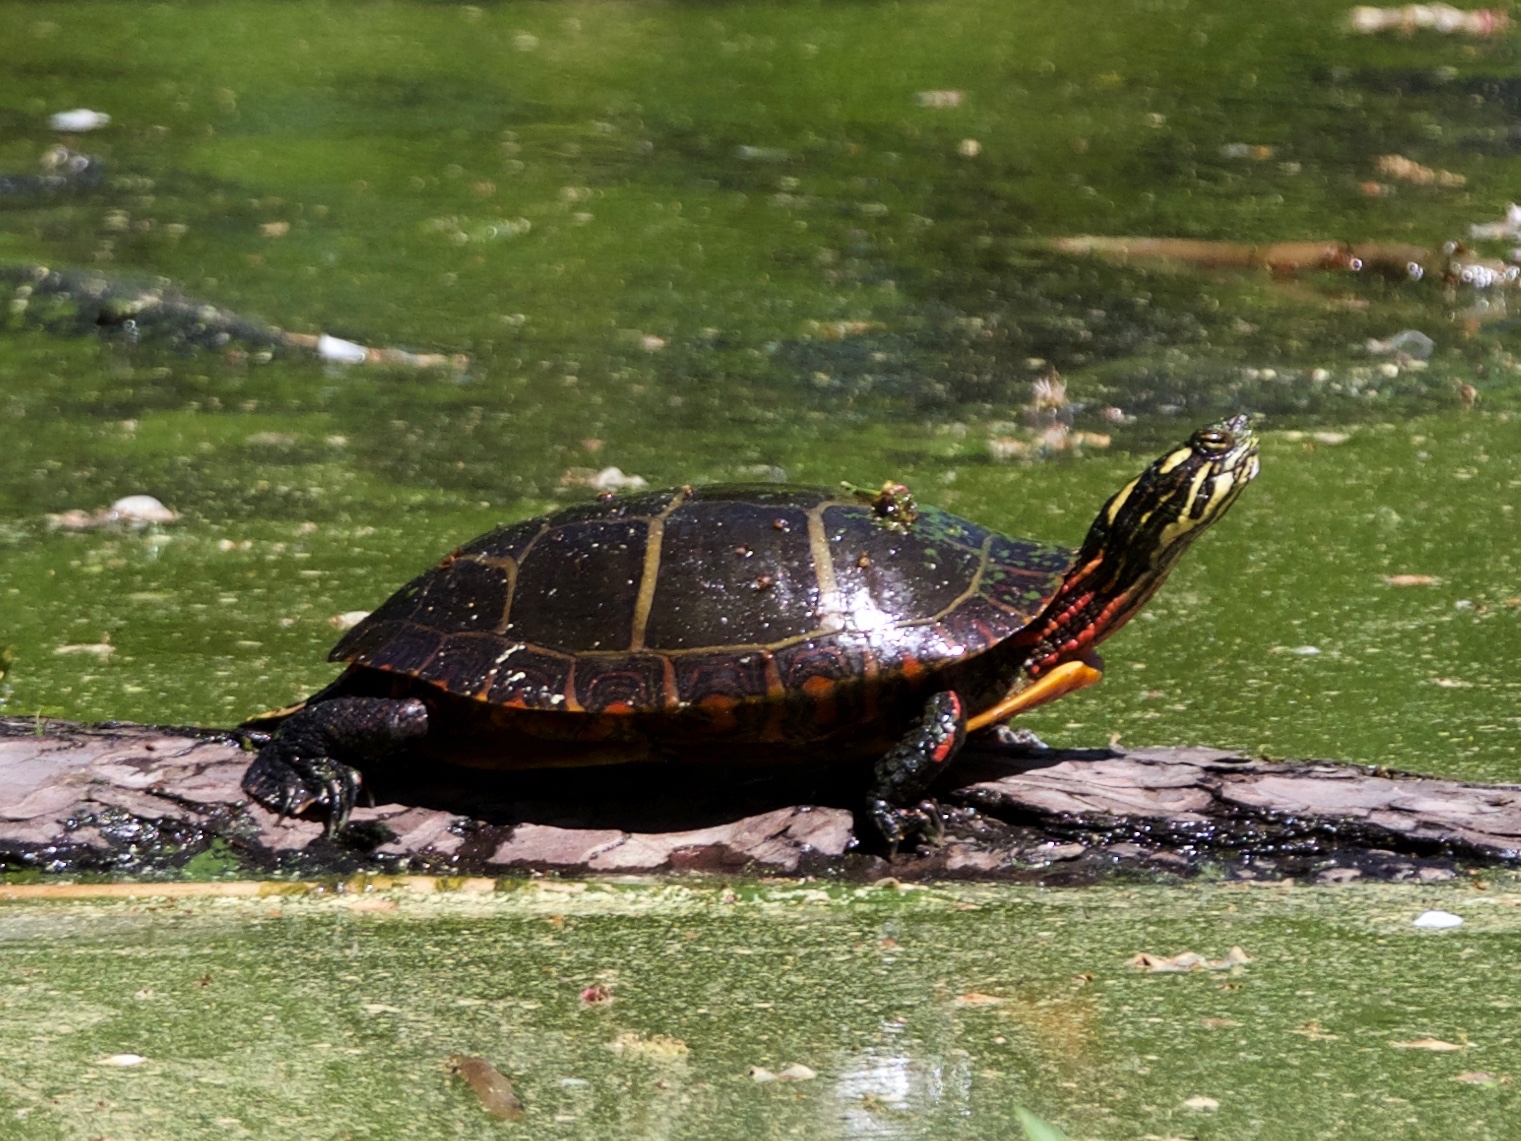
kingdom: Animalia
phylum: Chordata
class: Testudines
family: Emydidae
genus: Chrysemys
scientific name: Chrysemys picta
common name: Painted turtle
